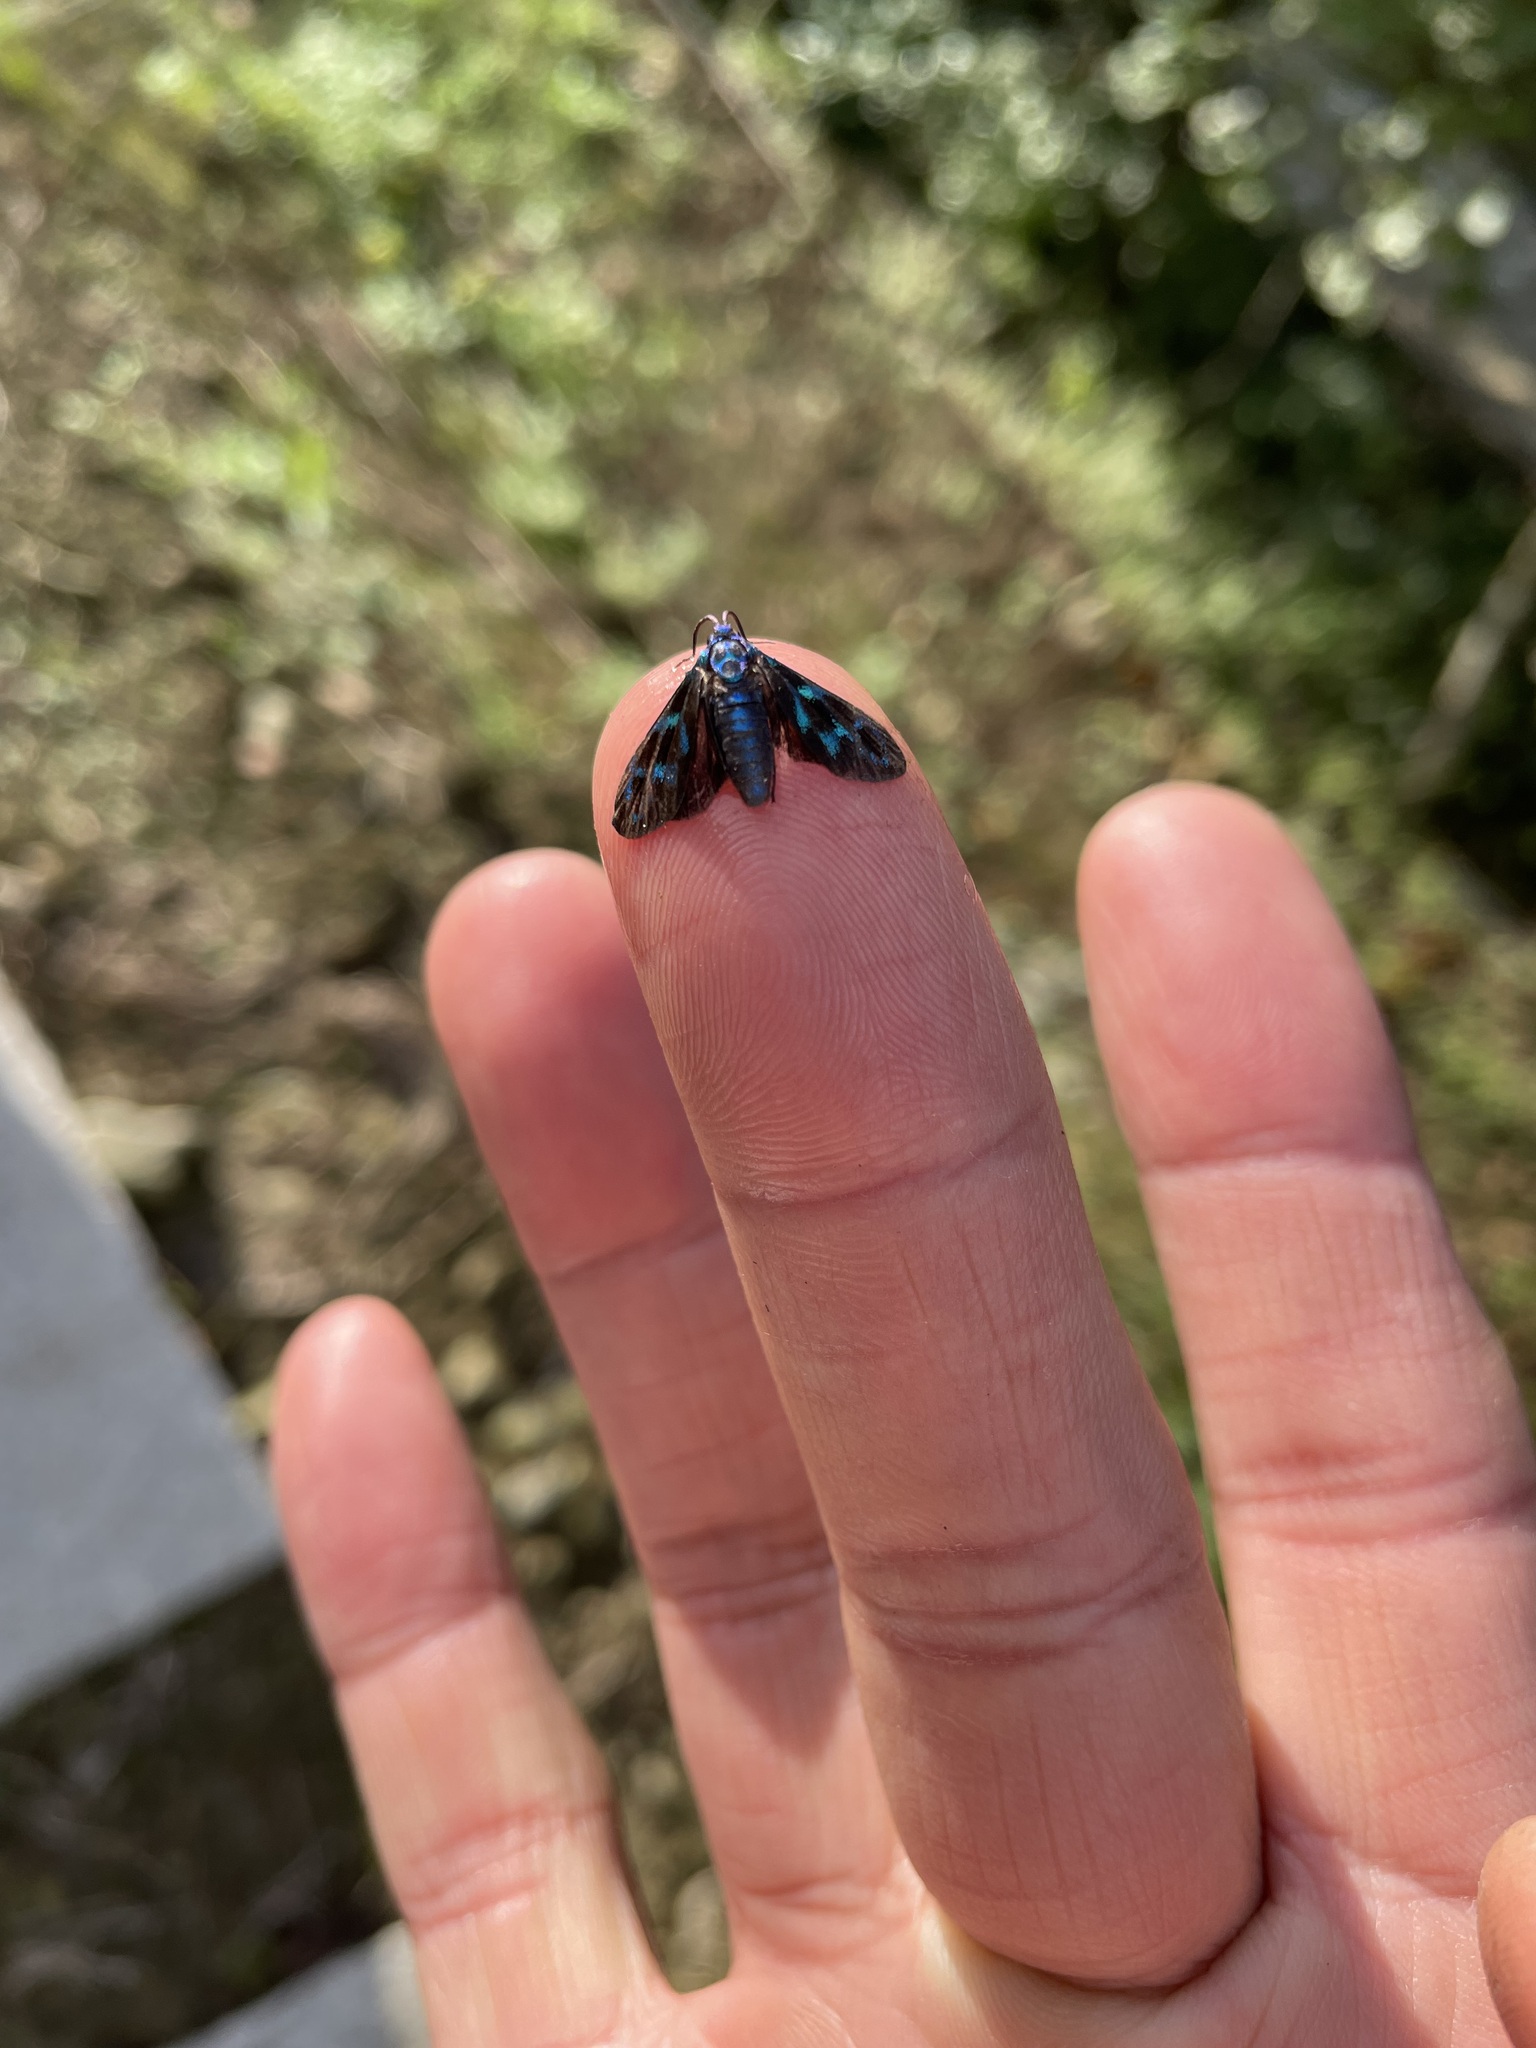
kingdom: Animalia
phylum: Arthropoda
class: Insecta
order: Lepidoptera
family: Zygaenidae
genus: Clelea
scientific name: Clelea nigroviridis
